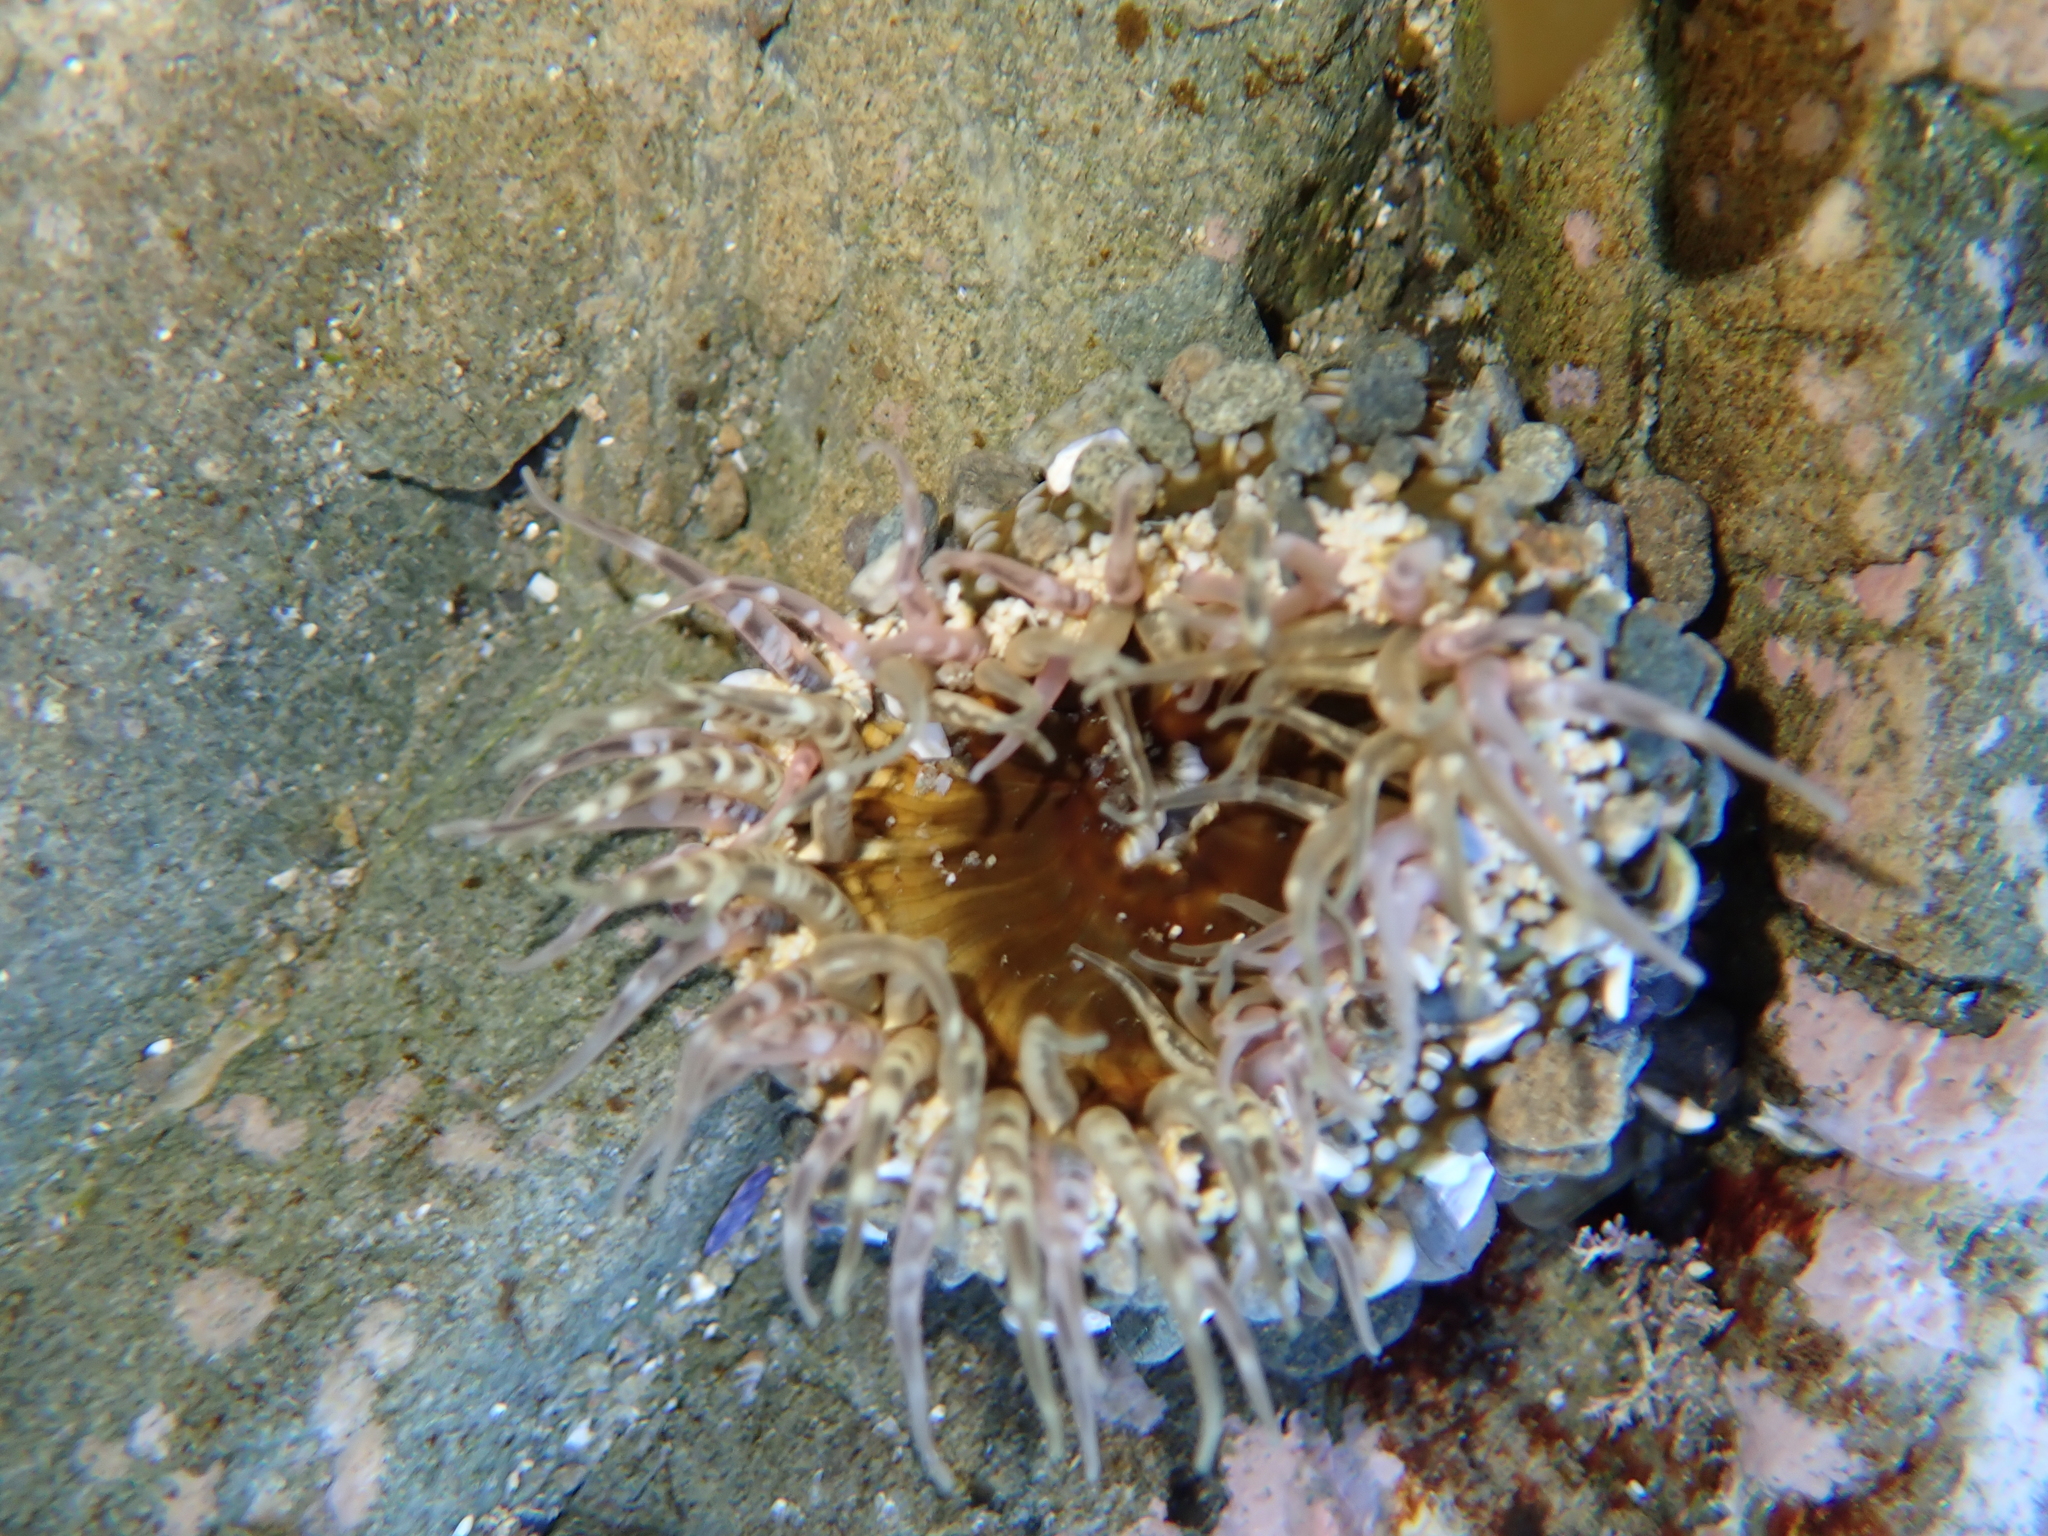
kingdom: Animalia
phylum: Cnidaria
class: Anthozoa
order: Actiniaria
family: Actiniidae
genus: Oulactis
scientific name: Oulactis muscosa
